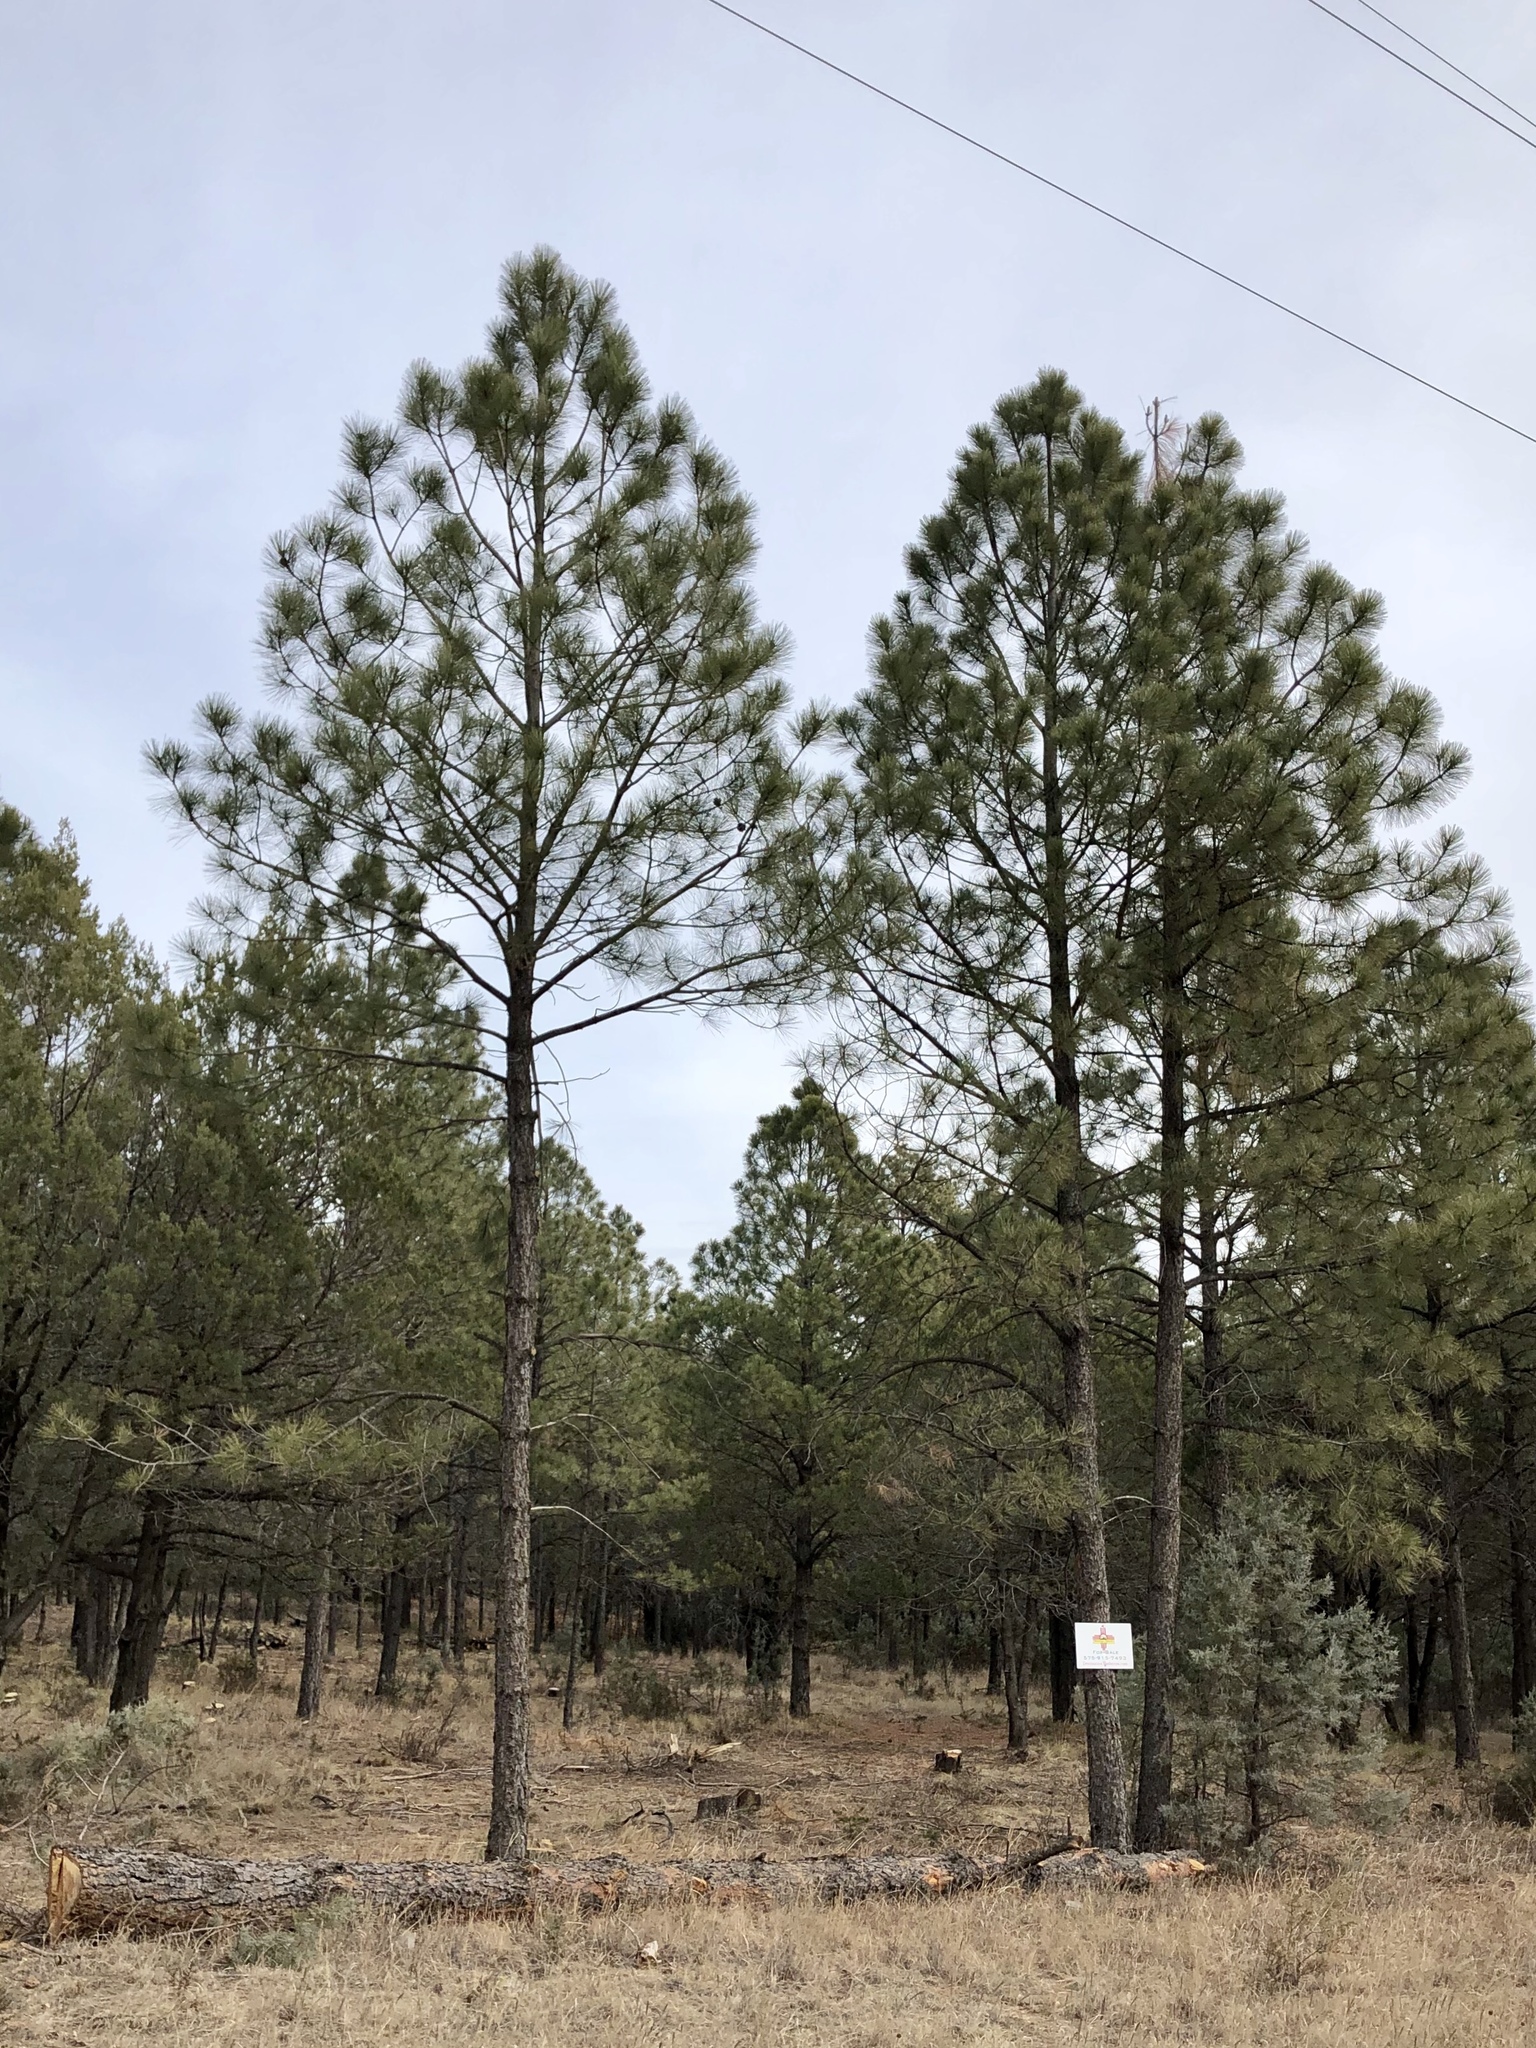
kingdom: Plantae
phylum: Tracheophyta
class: Pinopsida
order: Pinales
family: Pinaceae
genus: Pinus
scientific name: Pinus ponderosa
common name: Western yellow-pine
